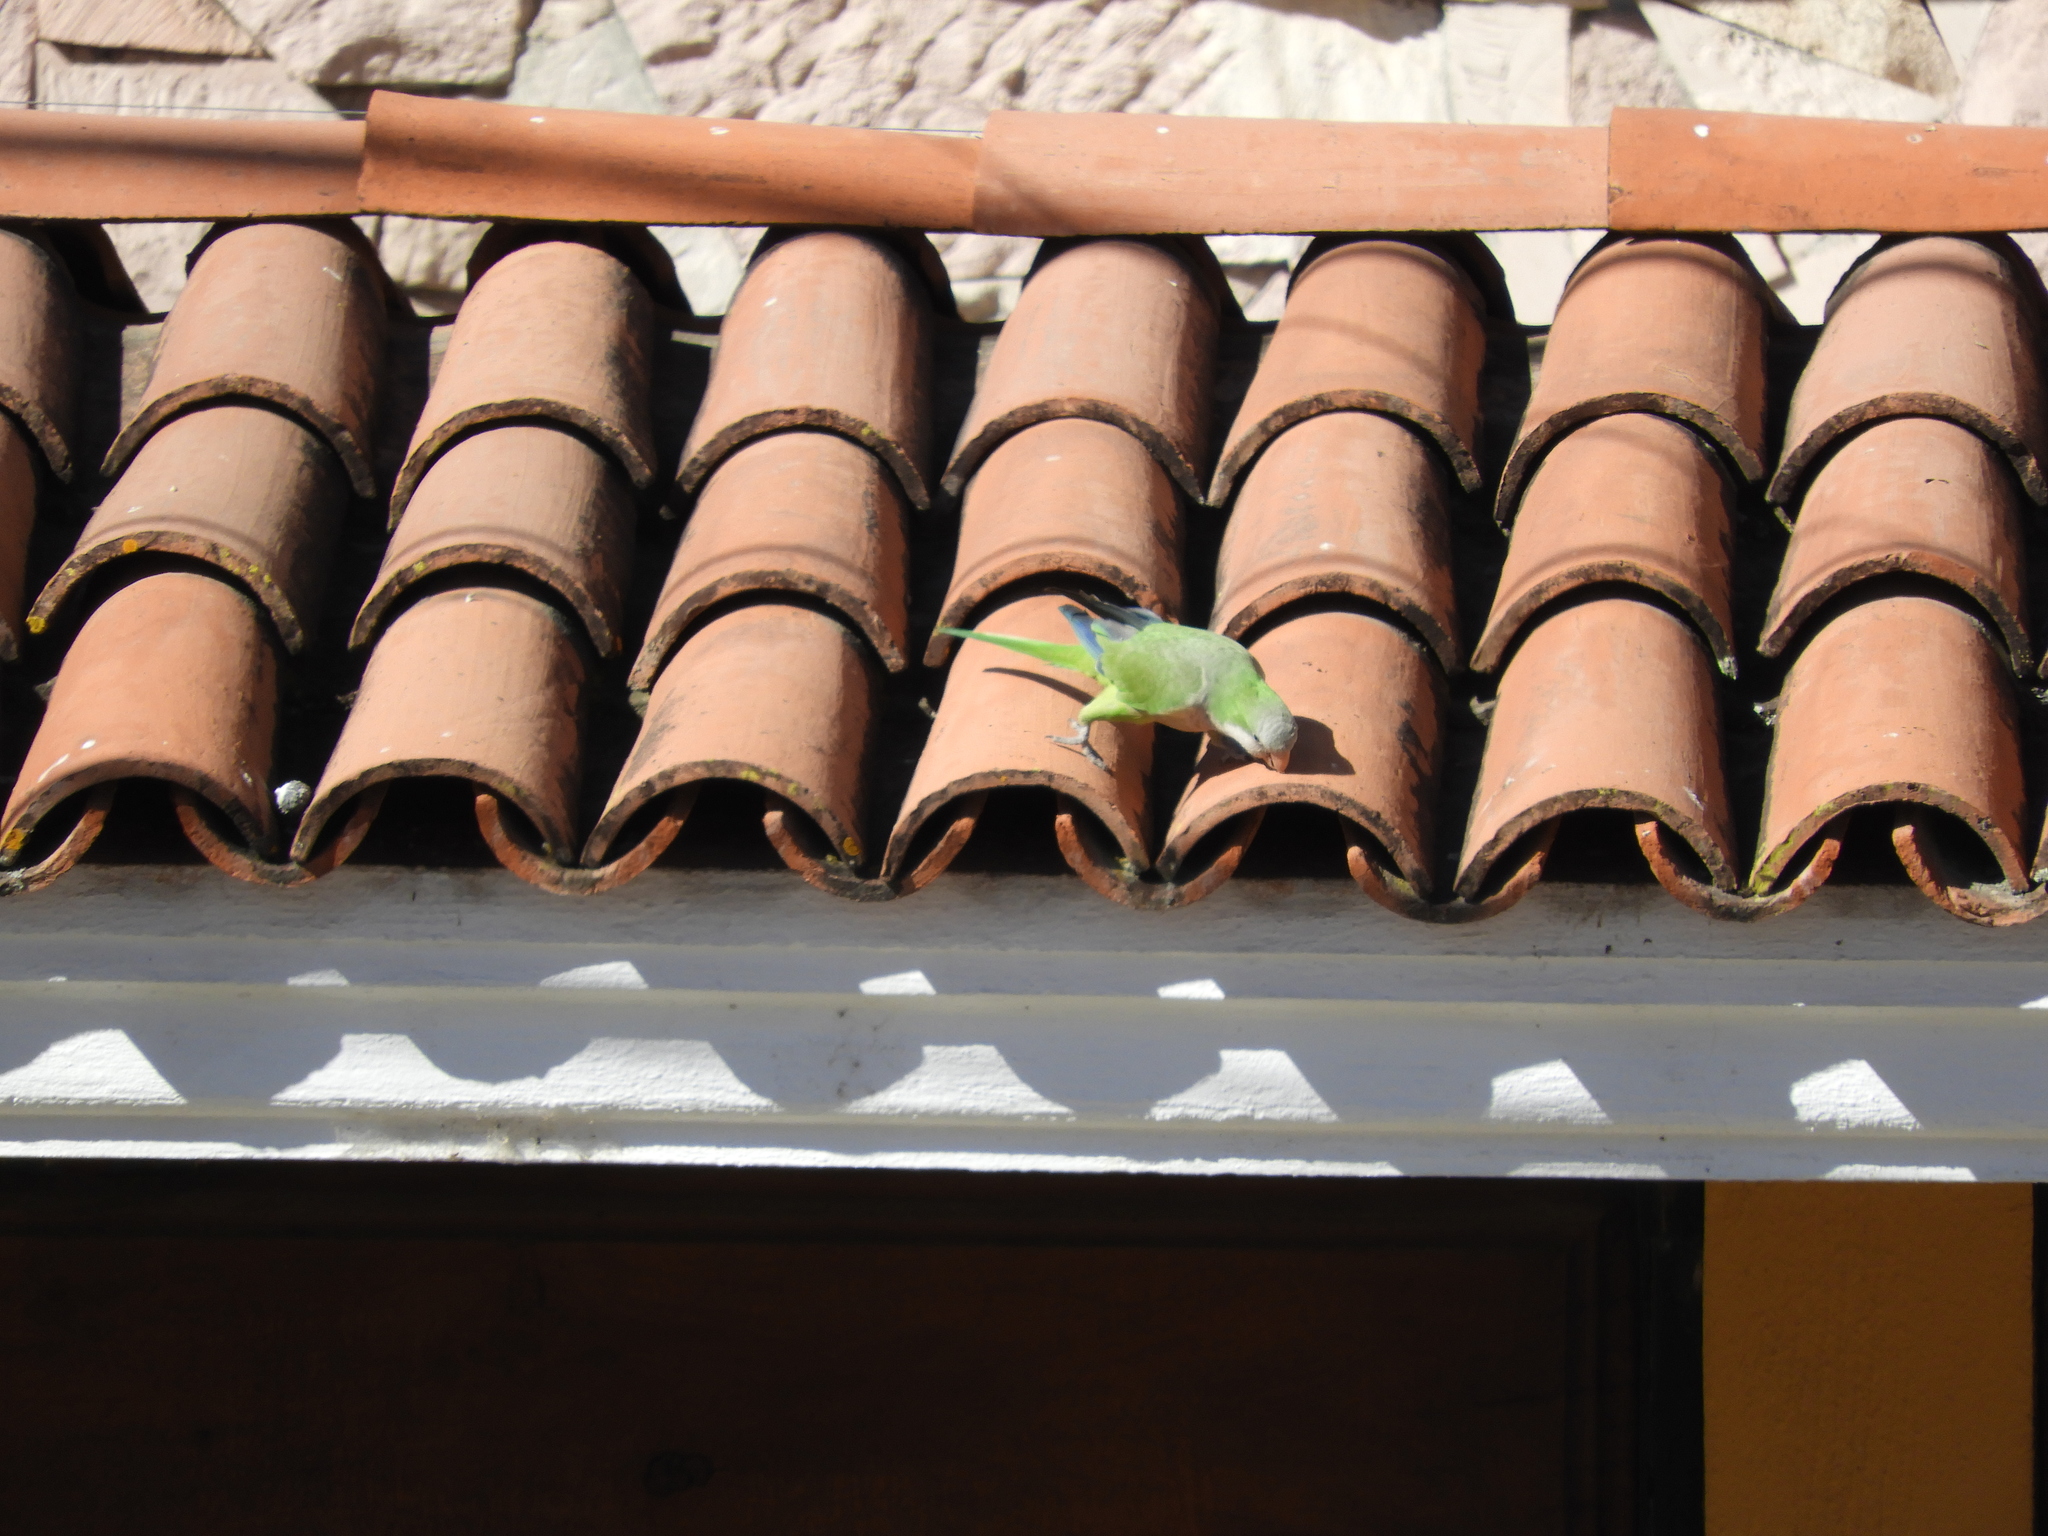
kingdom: Animalia
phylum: Chordata
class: Aves
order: Psittaciformes
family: Psittacidae
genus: Myiopsitta
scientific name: Myiopsitta monachus
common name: Monk parakeet
